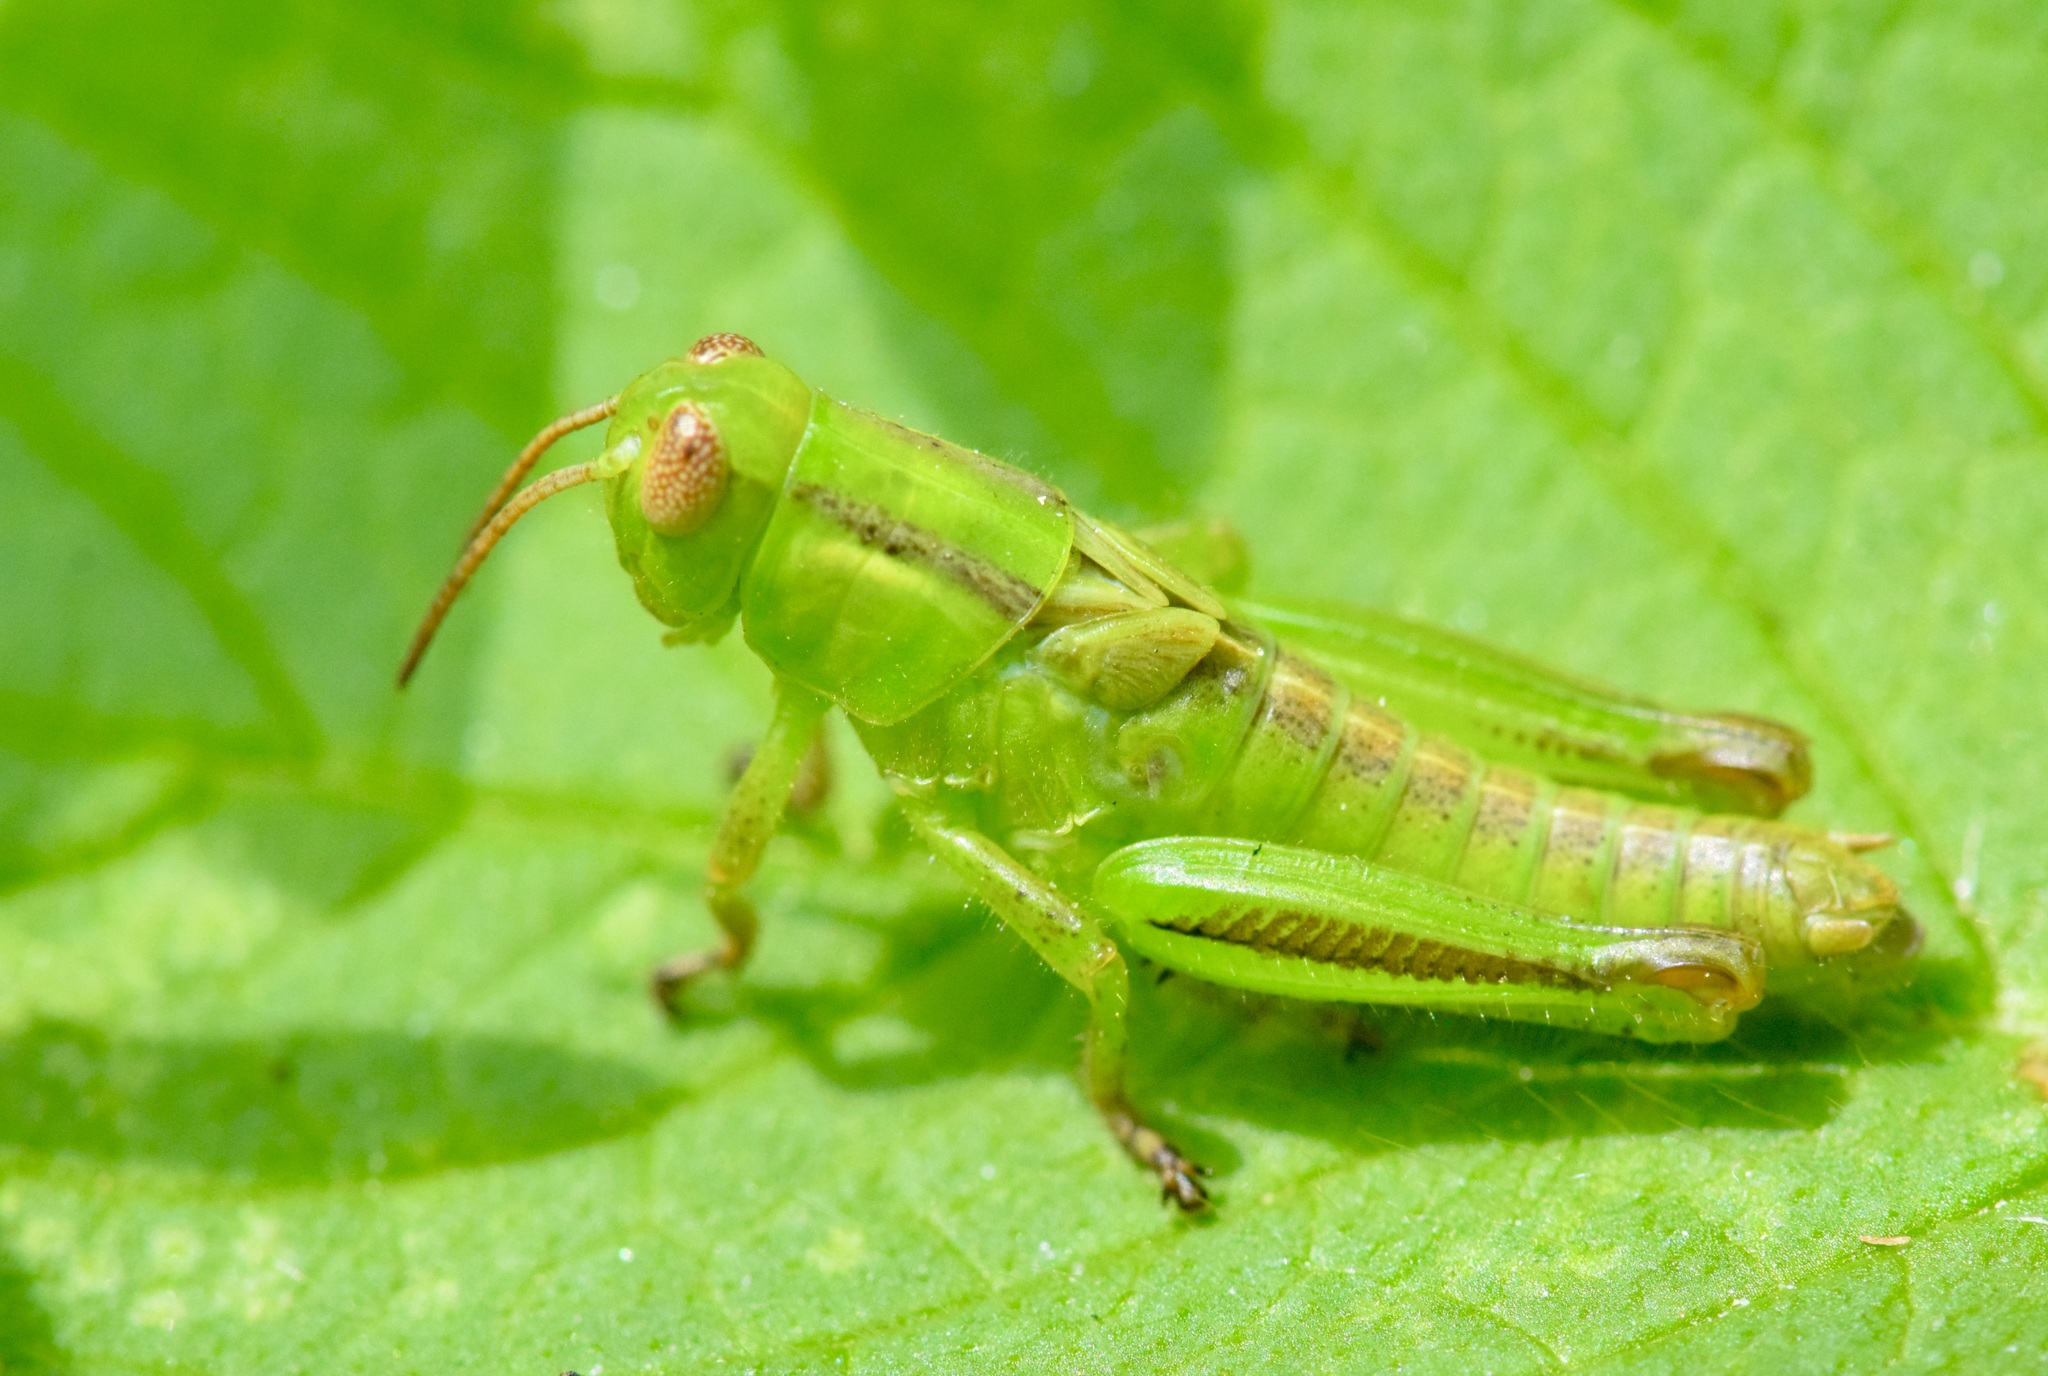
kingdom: Animalia
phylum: Arthropoda
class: Insecta
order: Orthoptera
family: Acrididae
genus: Melanoplus
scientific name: Melanoplus bivittatus
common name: Two-striped grasshopper
